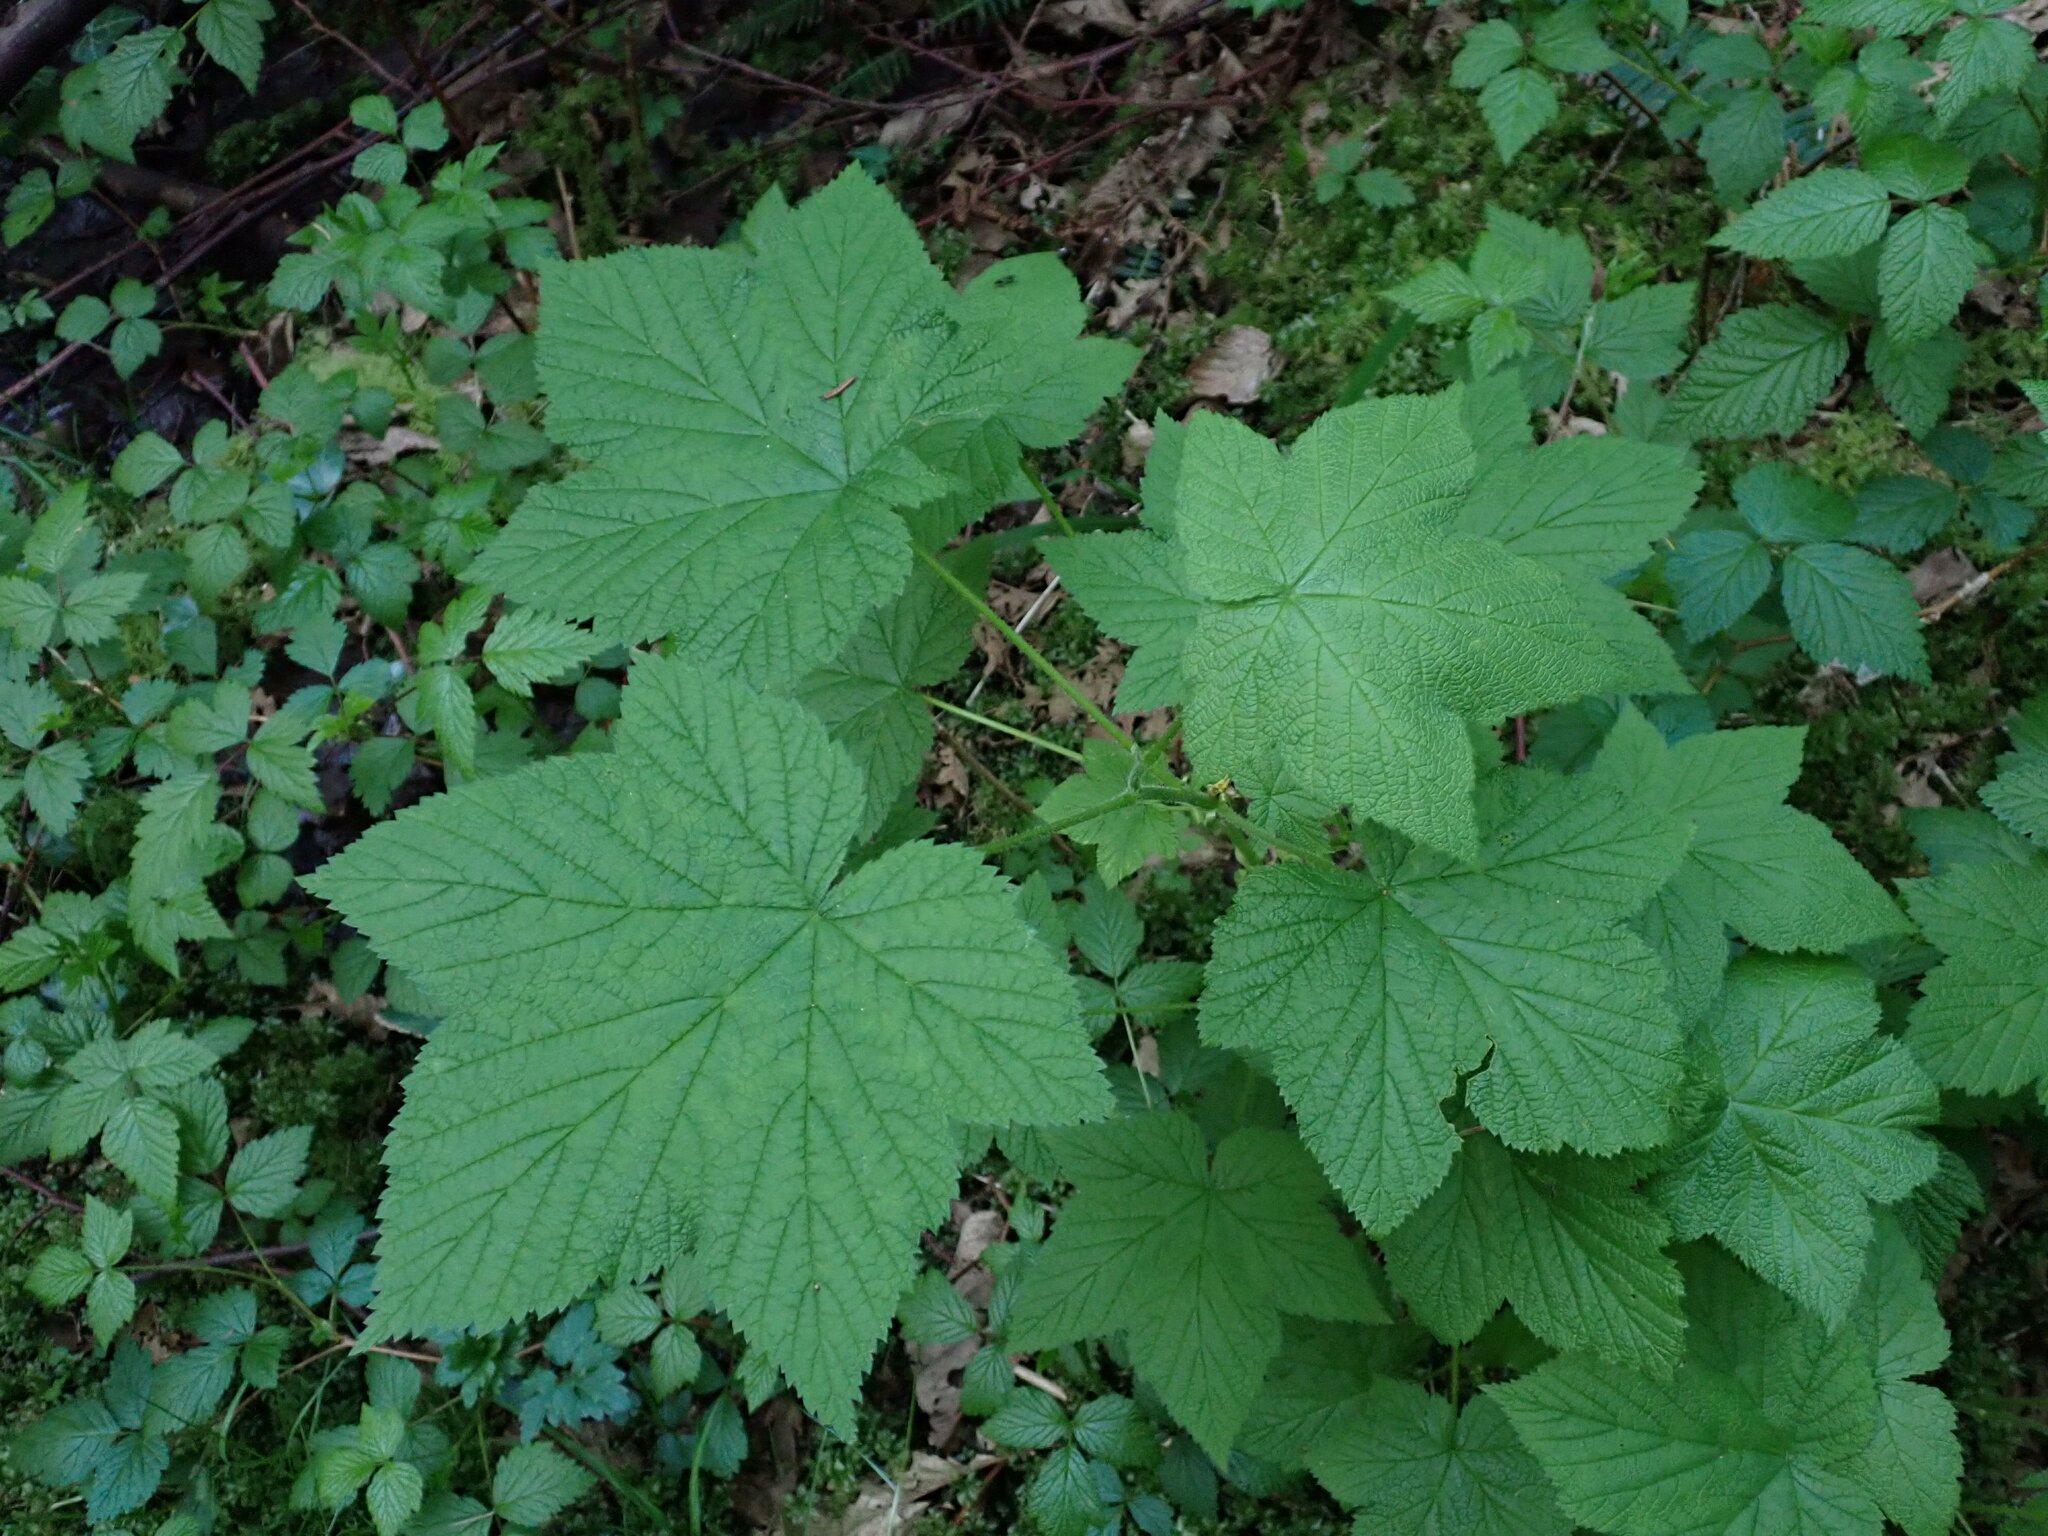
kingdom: Plantae
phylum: Tracheophyta
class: Magnoliopsida
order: Rosales
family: Rosaceae
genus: Rubus
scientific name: Rubus parviflorus
